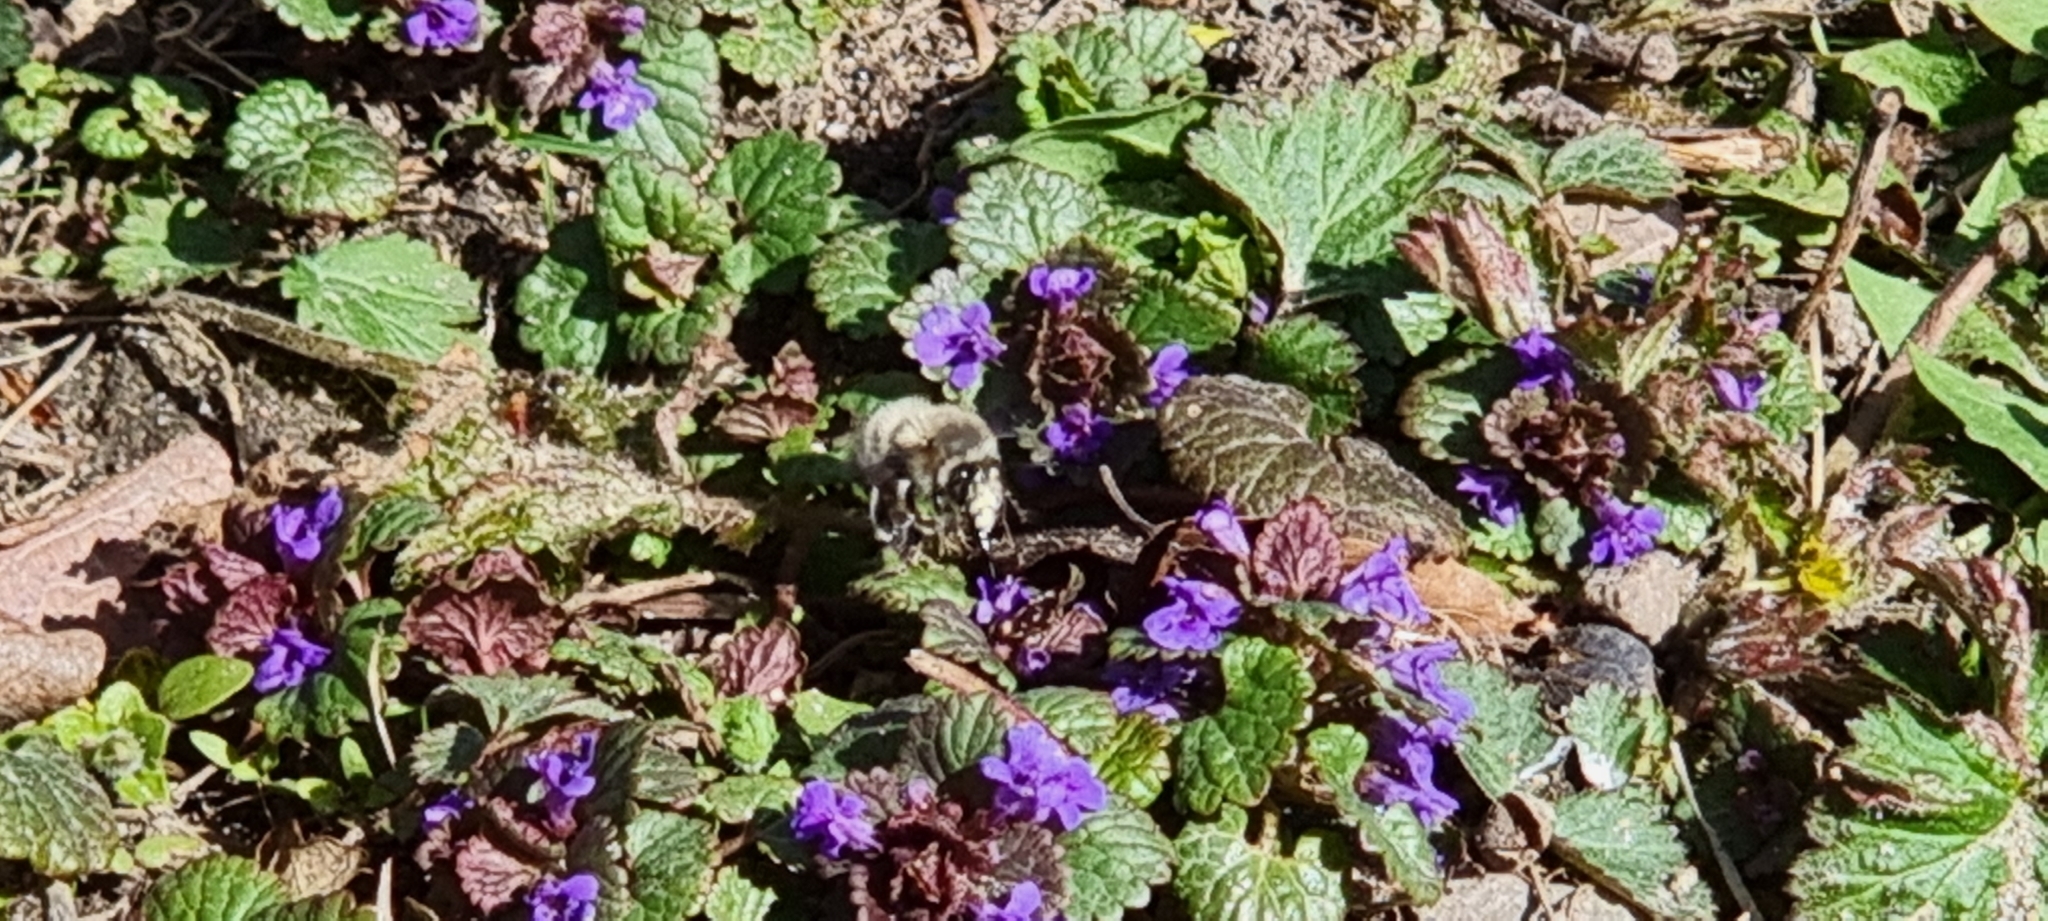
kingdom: Animalia
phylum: Arthropoda
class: Insecta
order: Hymenoptera
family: Apidae
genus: Anthophora
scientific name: Anthophora plumipes
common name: Hairy-footed flower bee
